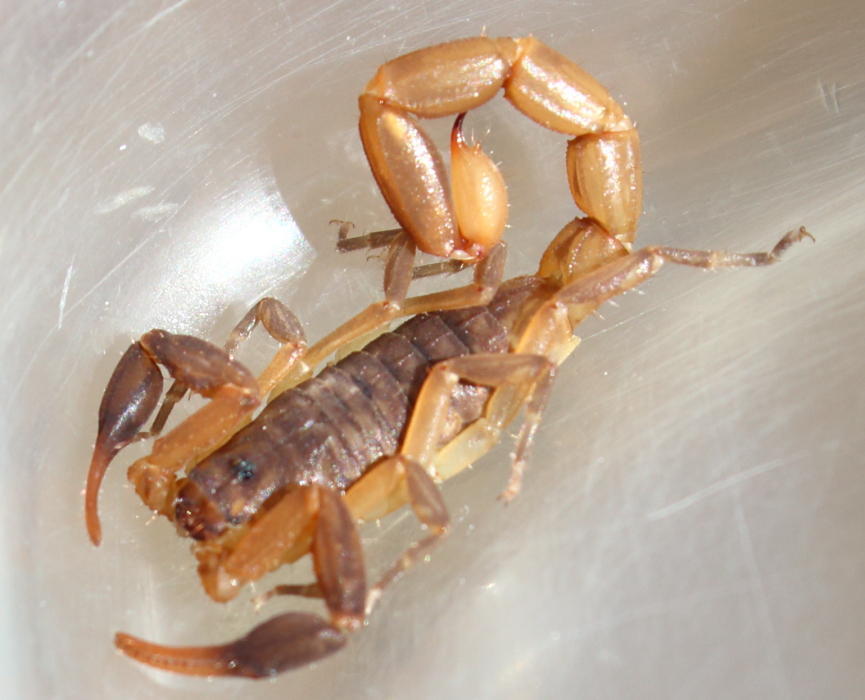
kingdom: Animalia
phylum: Arthropoda
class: Arachnida
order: Scorpiones
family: Buthidae
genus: Pseudolychas
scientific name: Pseudolychas ochraceus
